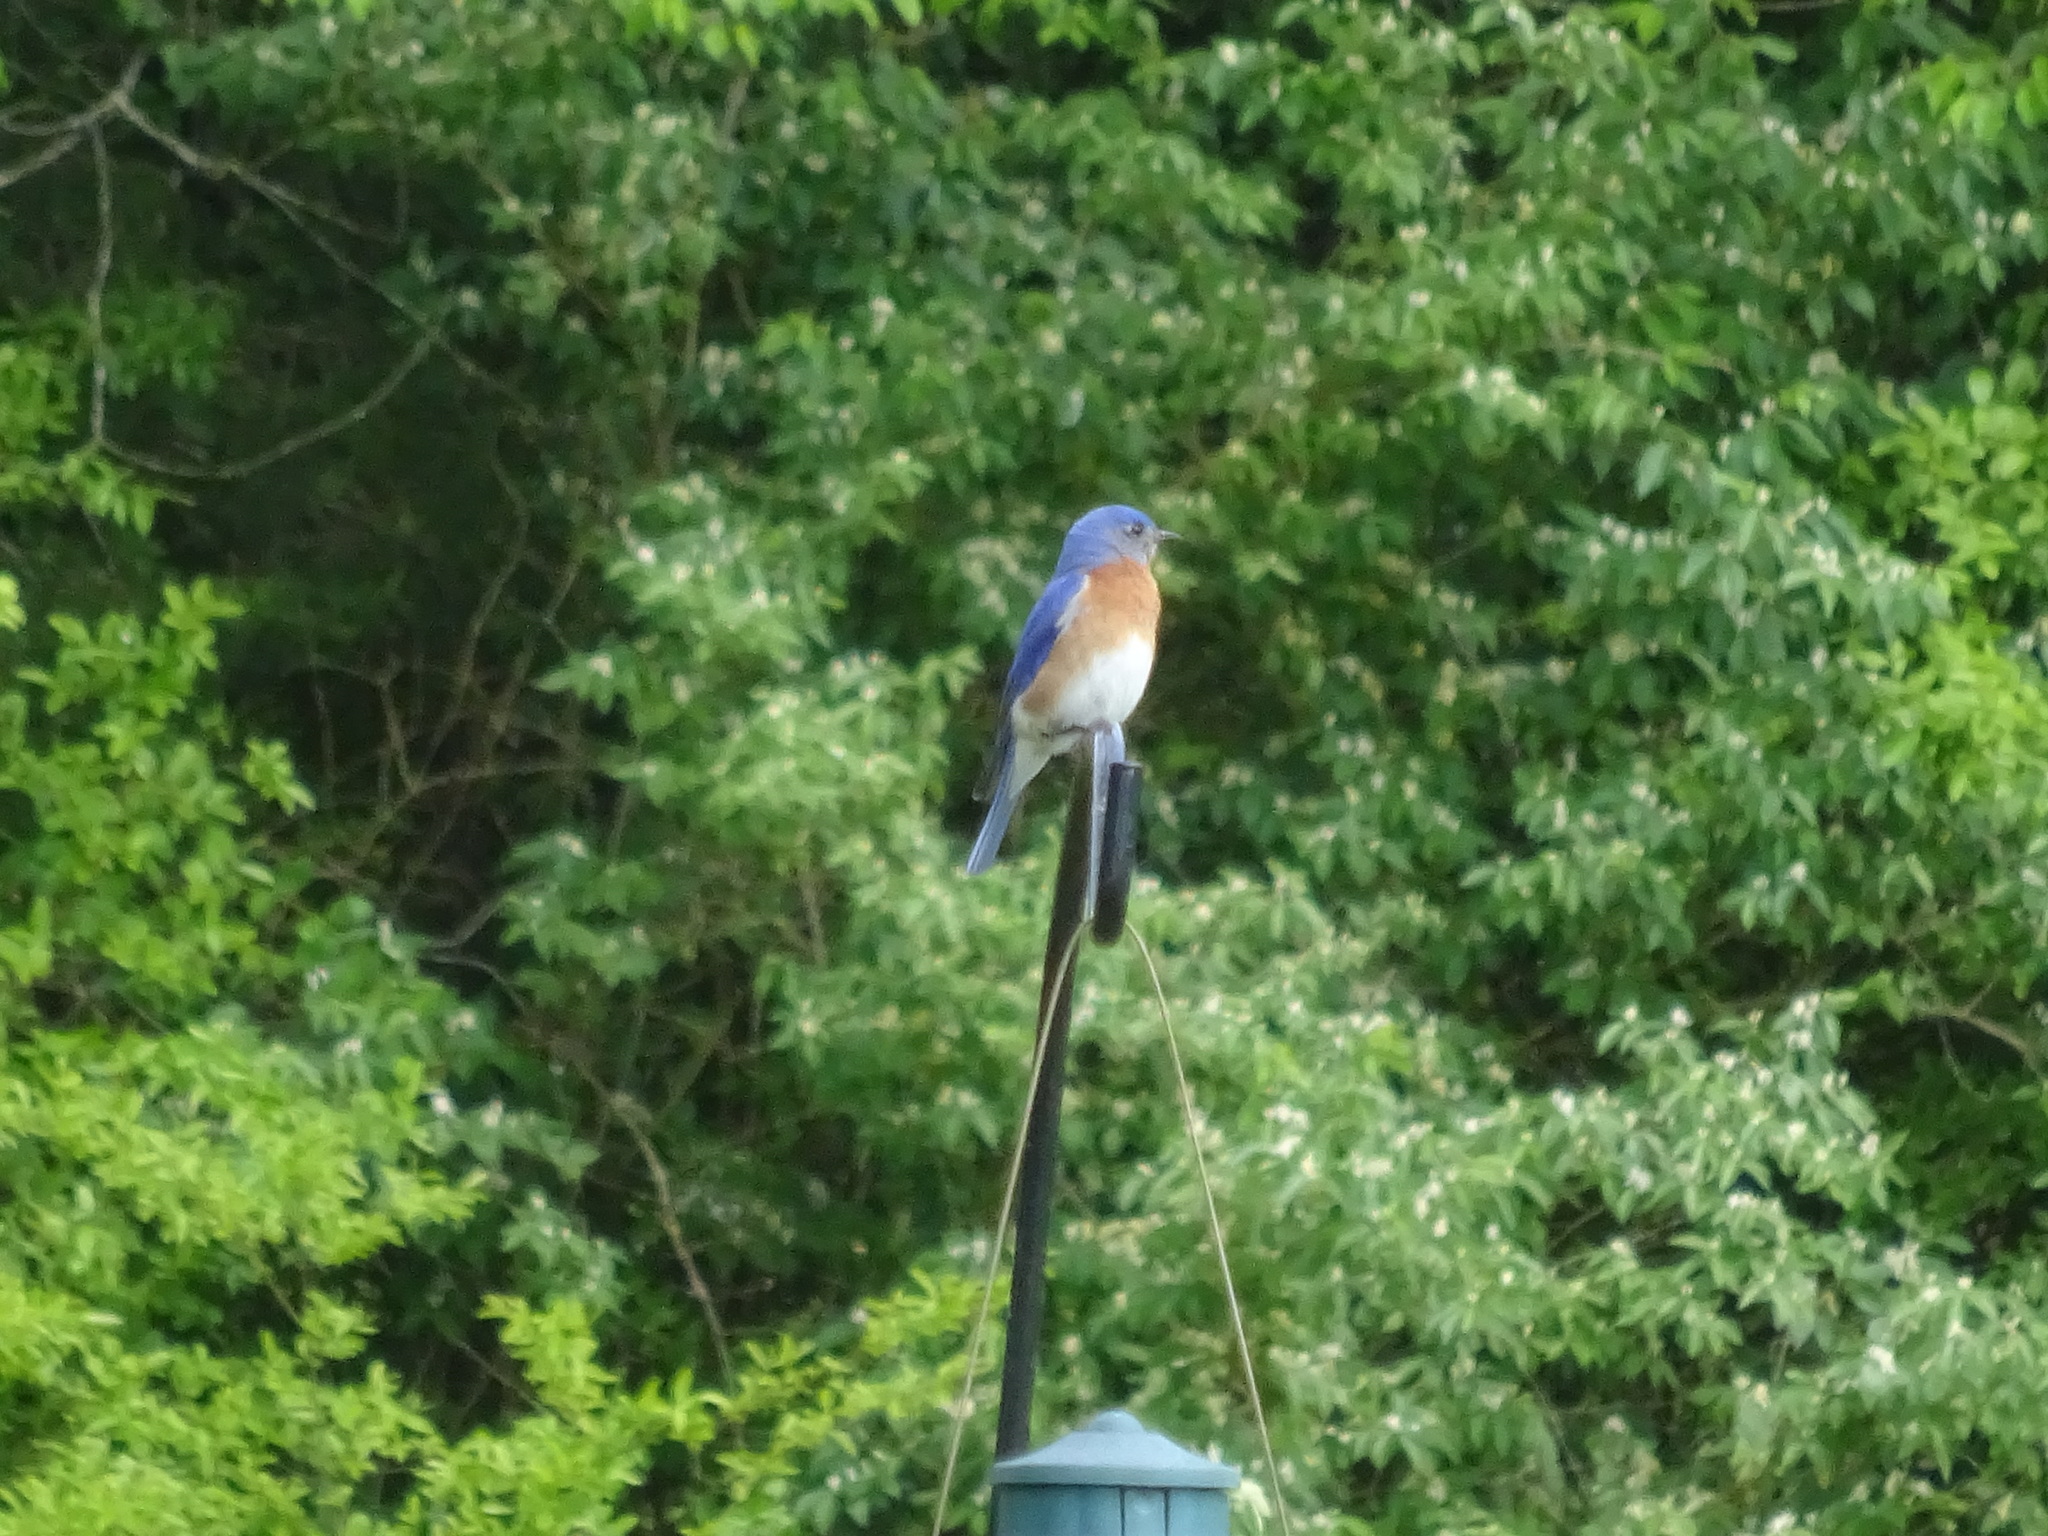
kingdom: Animalia
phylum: Chordata
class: Aves
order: Passeriformes
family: Turdidae
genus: Sialia
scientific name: Sialia sialis
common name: Eastern bluebird
